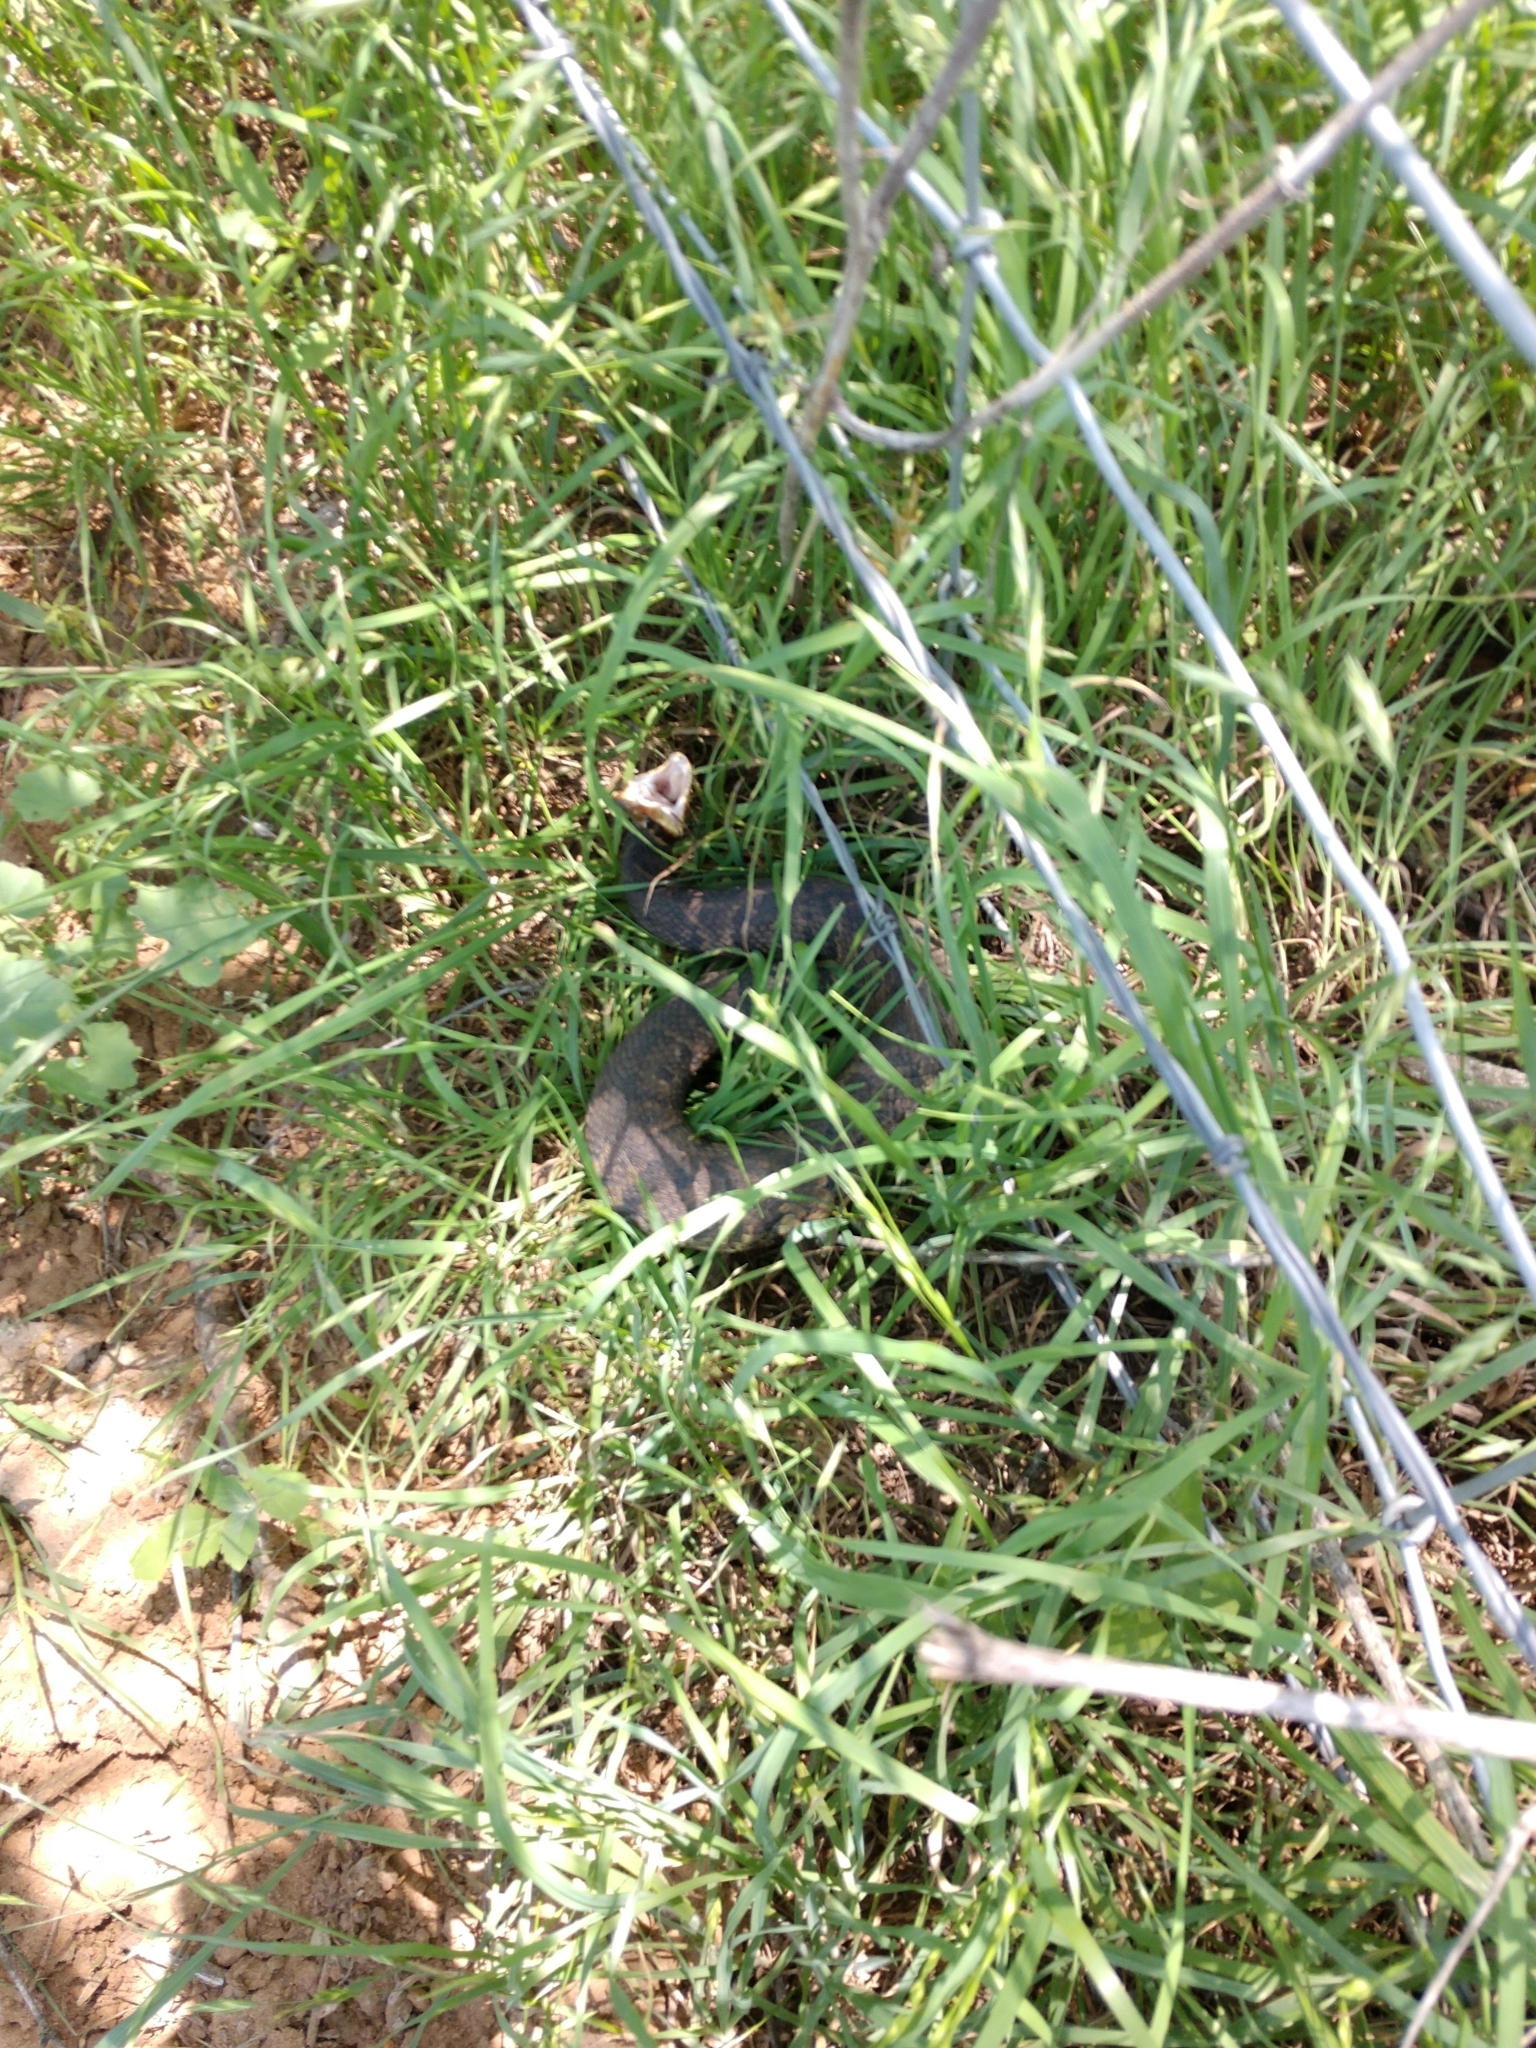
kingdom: Animalia
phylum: Chordata
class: Squamata
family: Viperidae
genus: Agkistrodon
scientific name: Agkistrodon piscivorus
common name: Cottonmouth
